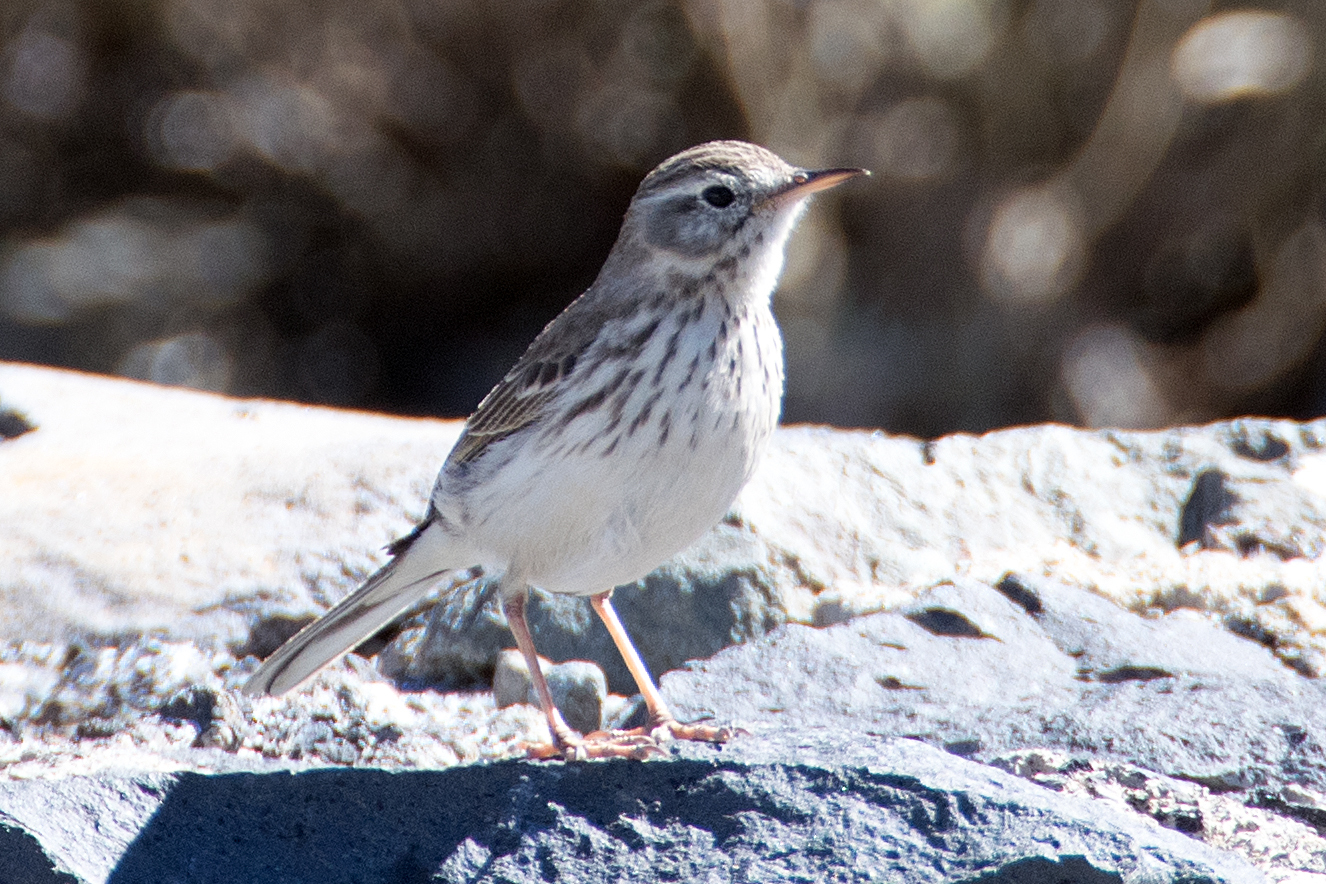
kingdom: Animalia
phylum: Chordata
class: Aves
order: Passeriformes
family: Motacillidae
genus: Anthus
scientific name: Anthus berthelotii
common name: Berthelot's pipit
